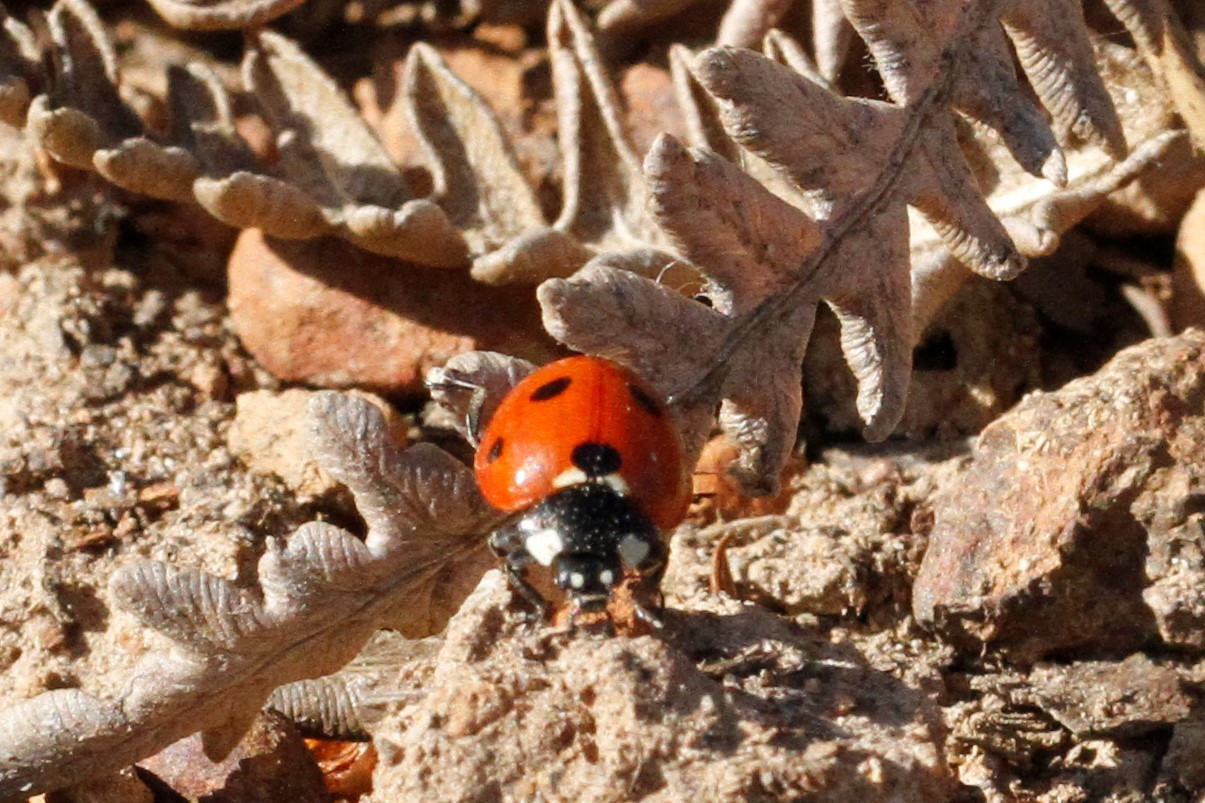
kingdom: Animalia
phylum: Arthropoda
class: Insecta
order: Coleoptera
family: Coccinellidae
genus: Coccinella
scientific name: Coccinella septempunctata
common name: Sevenspotted lady beetle
